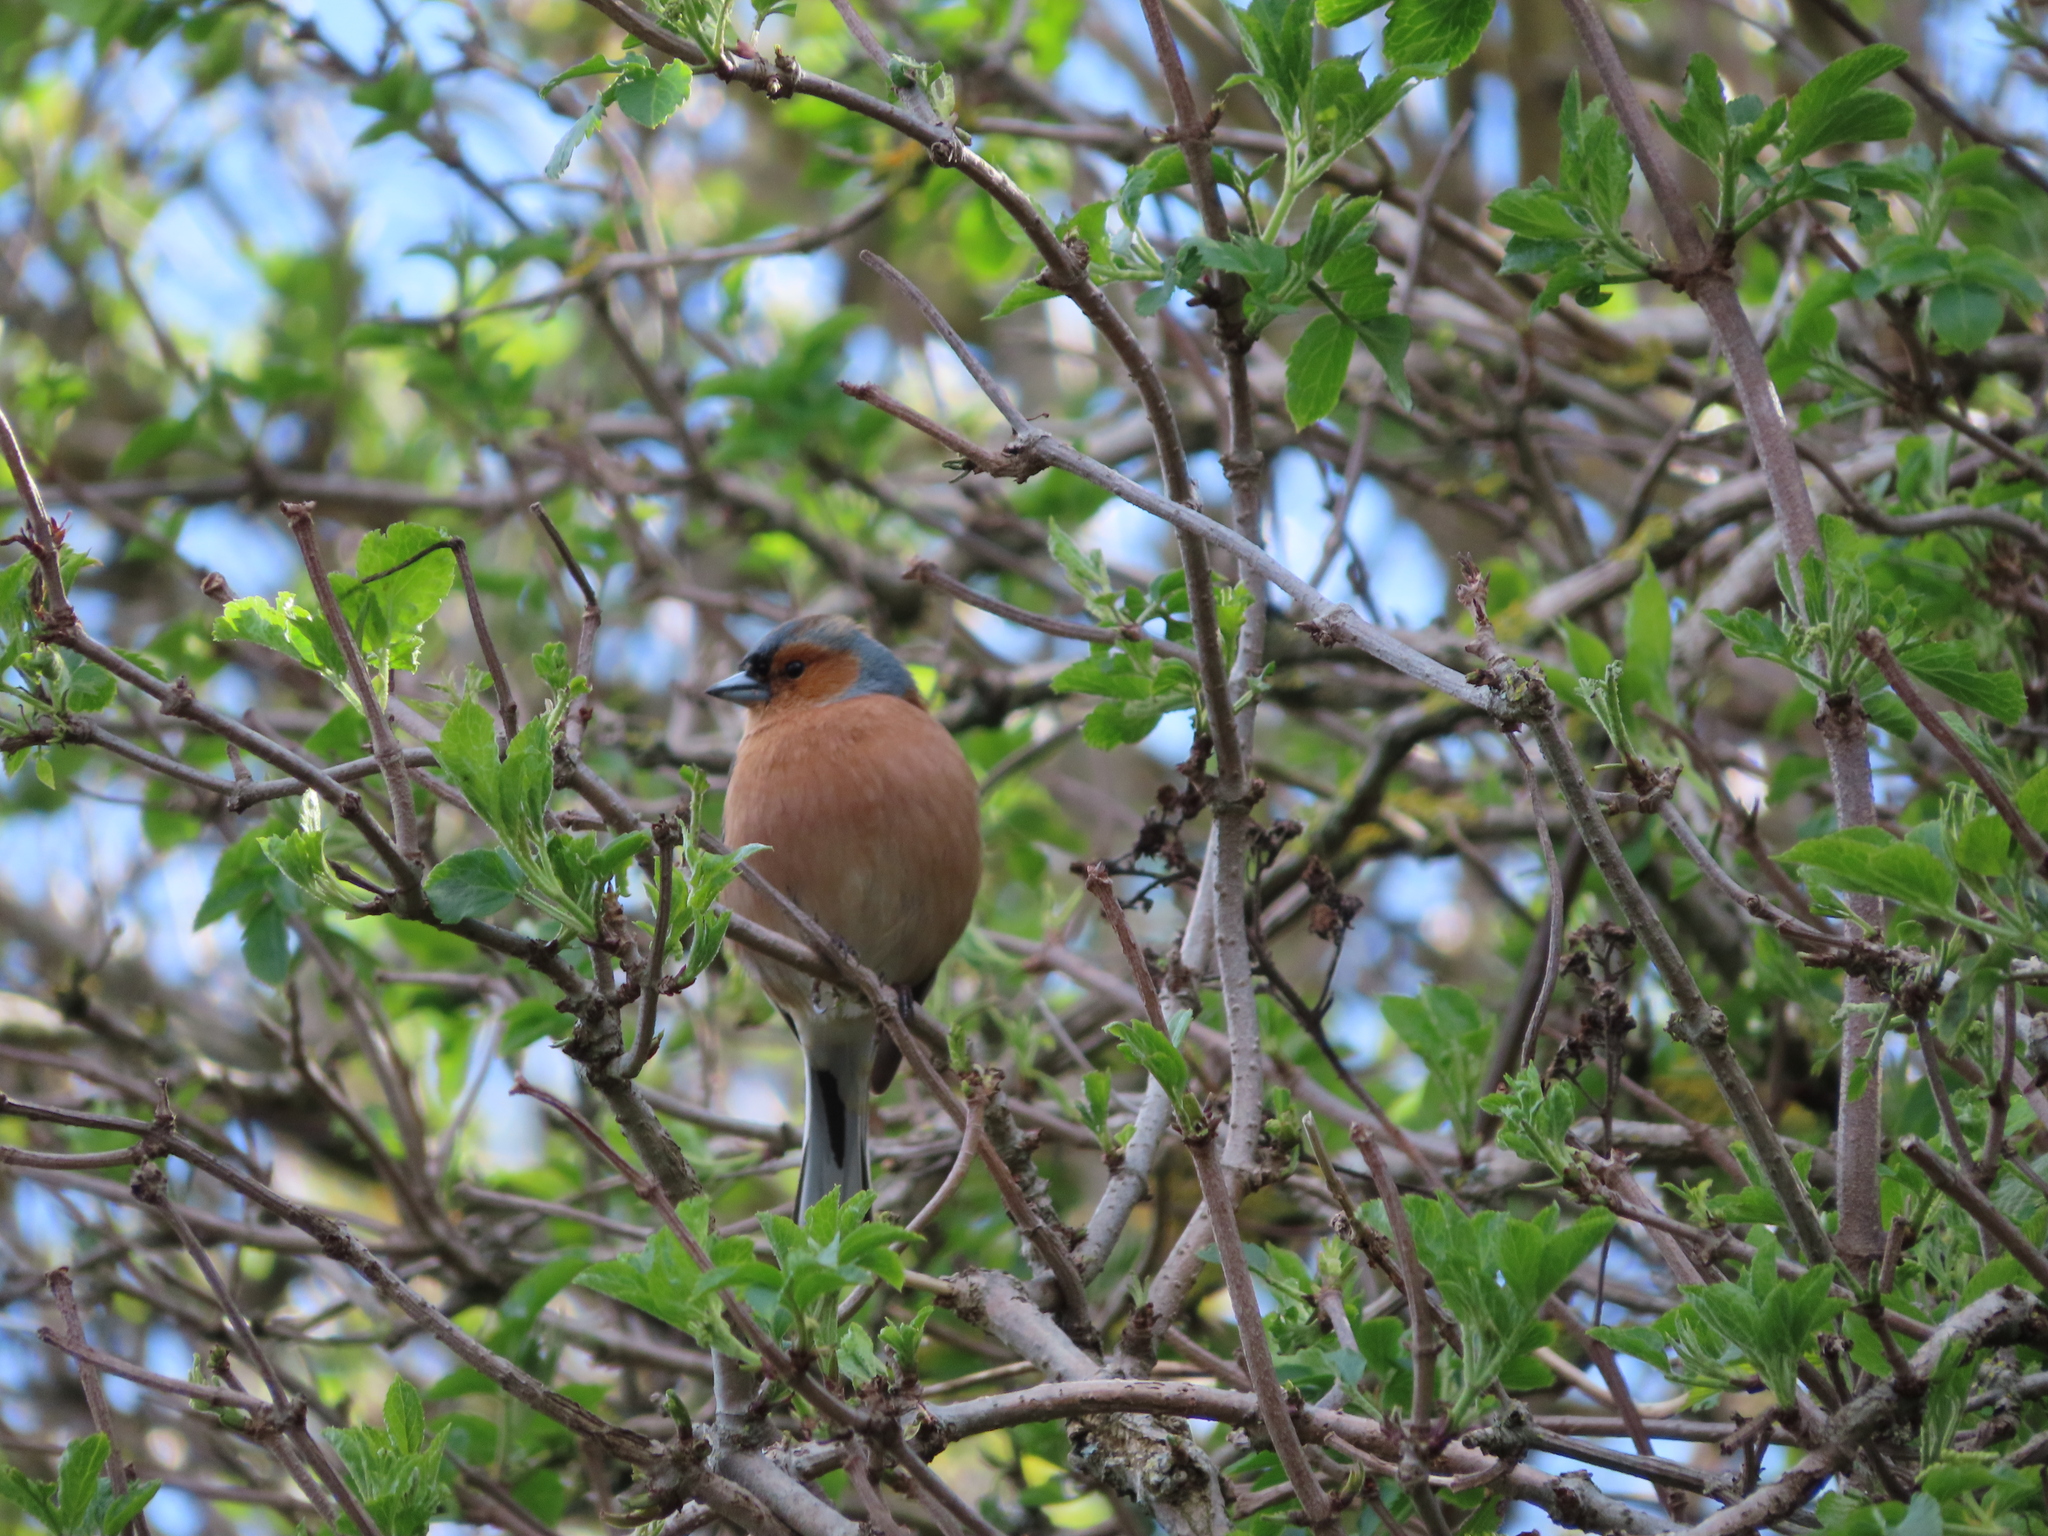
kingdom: Animalia
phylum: Chordata
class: Aves
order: Passeriformes
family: Fringillidae
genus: Fringilla
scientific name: Fringilla coelebs
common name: Common chaffinch
